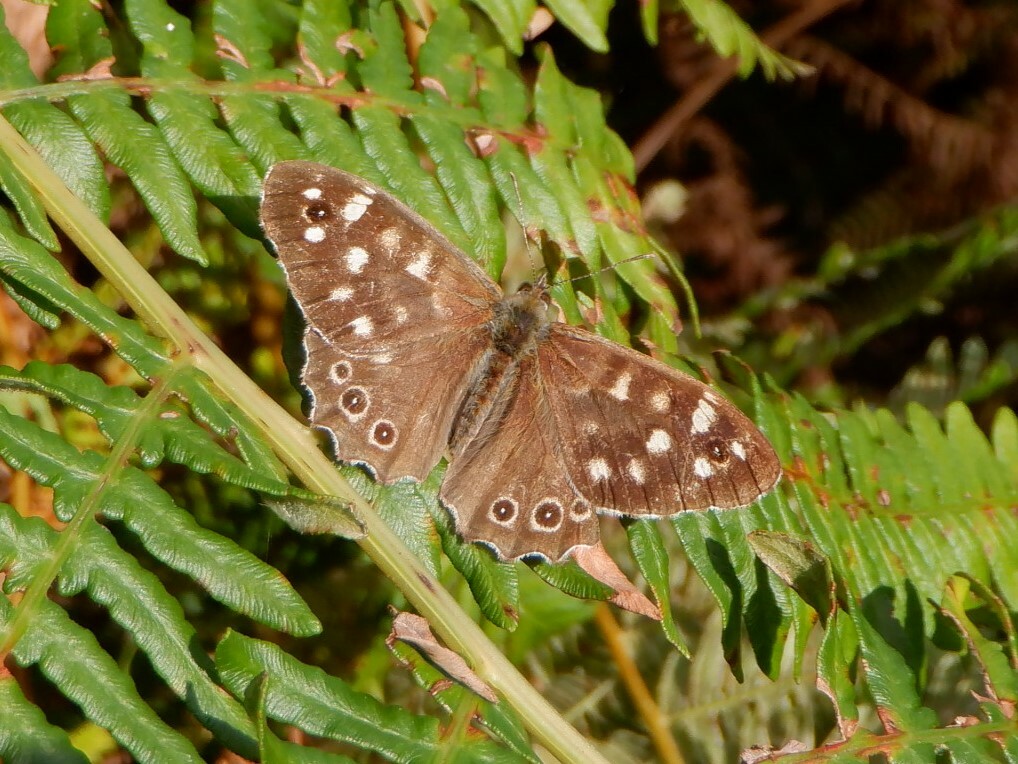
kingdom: Animalia
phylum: Arthropoda
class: Insecta
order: Lepidoptera
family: Nymphalidae
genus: Pararge
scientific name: Pararge aegeria
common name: Speckled wood
